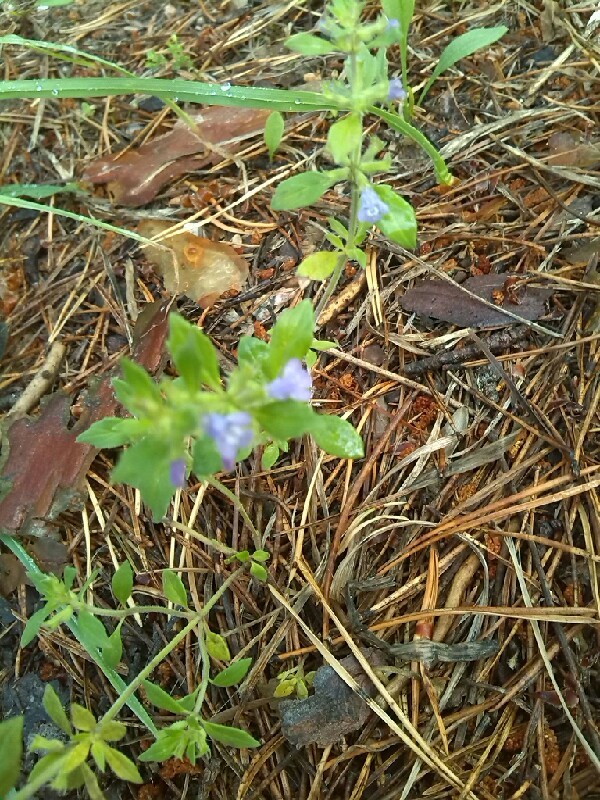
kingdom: Plantae
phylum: Tracheophyta
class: Magnoliopsida
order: Lamiales
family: Lamiaceae
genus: Clinopodium
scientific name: Clinopodium acinos
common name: Basil thyme
